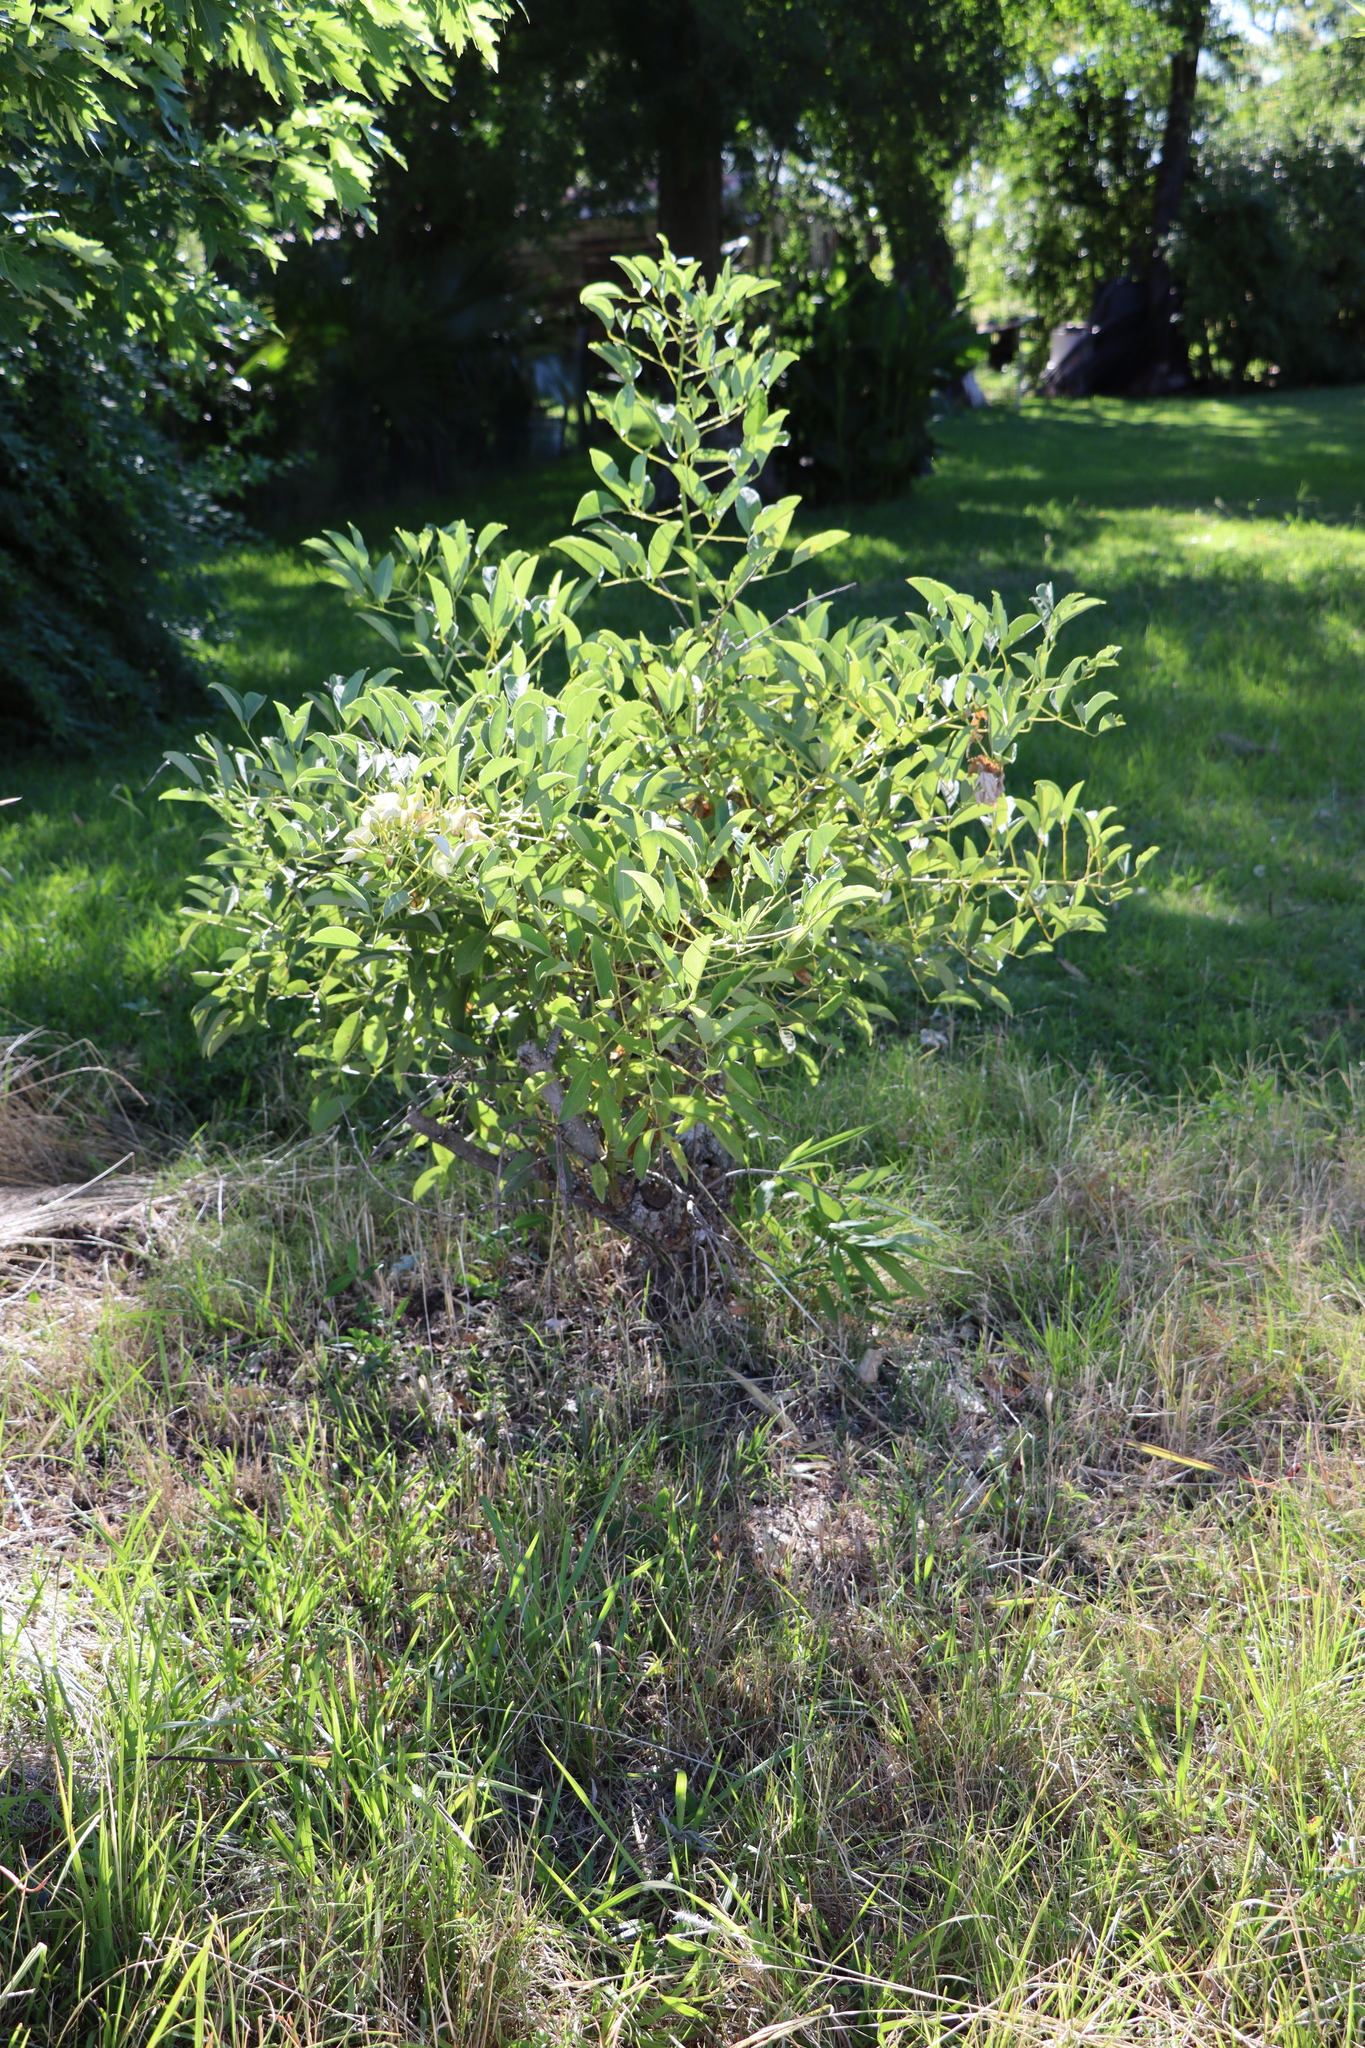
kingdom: Plantae
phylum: Tracheophyta
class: Magnoliopsida
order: Fabales
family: Fabaceae
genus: Erythrina
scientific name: Erythrina crista-galli
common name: Cockspur coral tree
